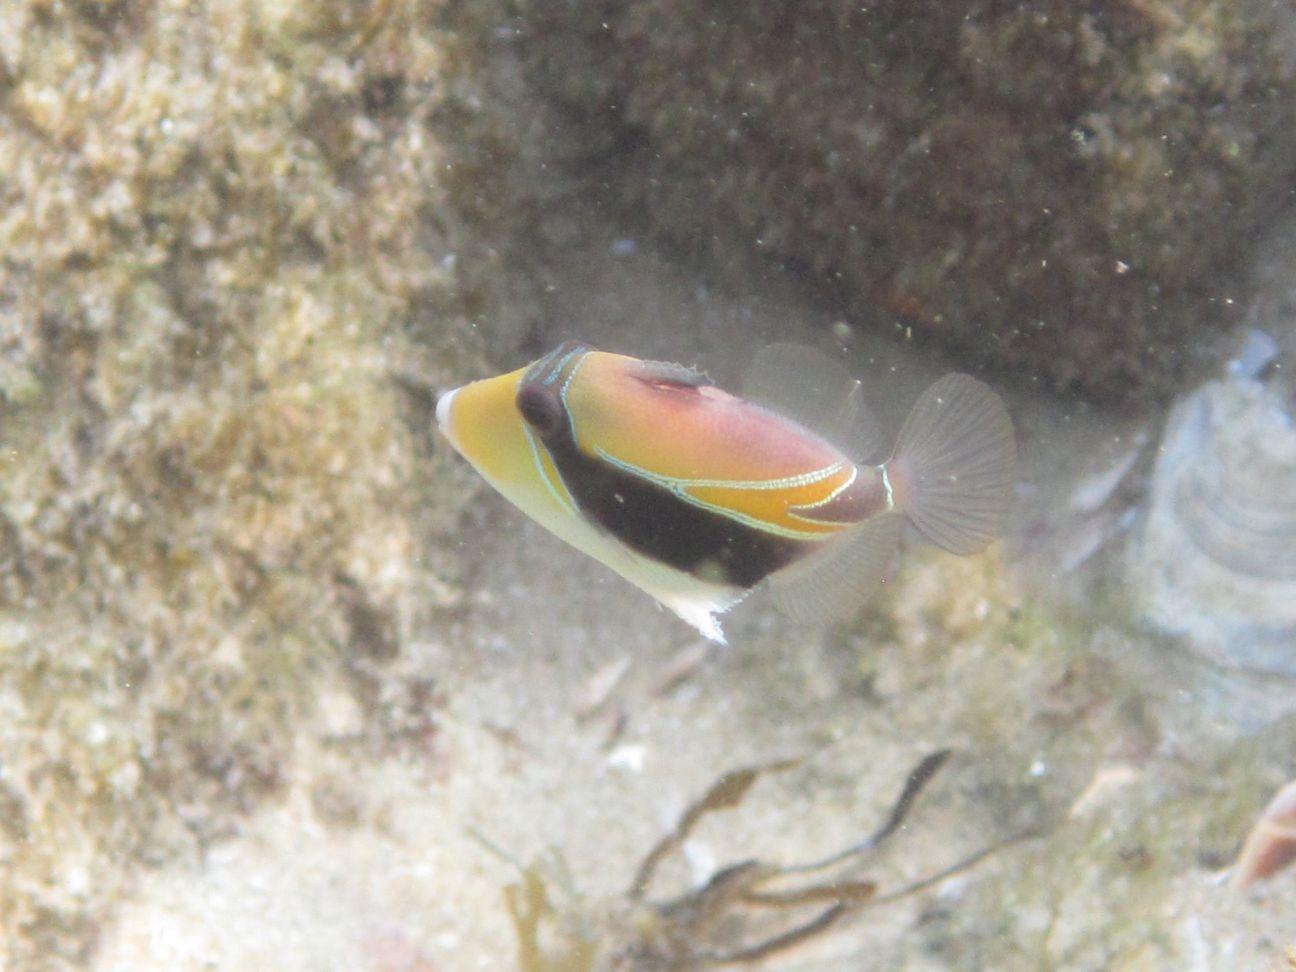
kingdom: Animalia
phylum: Chordata
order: Tetraodontiformes
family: Balistidae
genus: Rhinecanthus
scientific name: Rhinecanthus rectangulus
